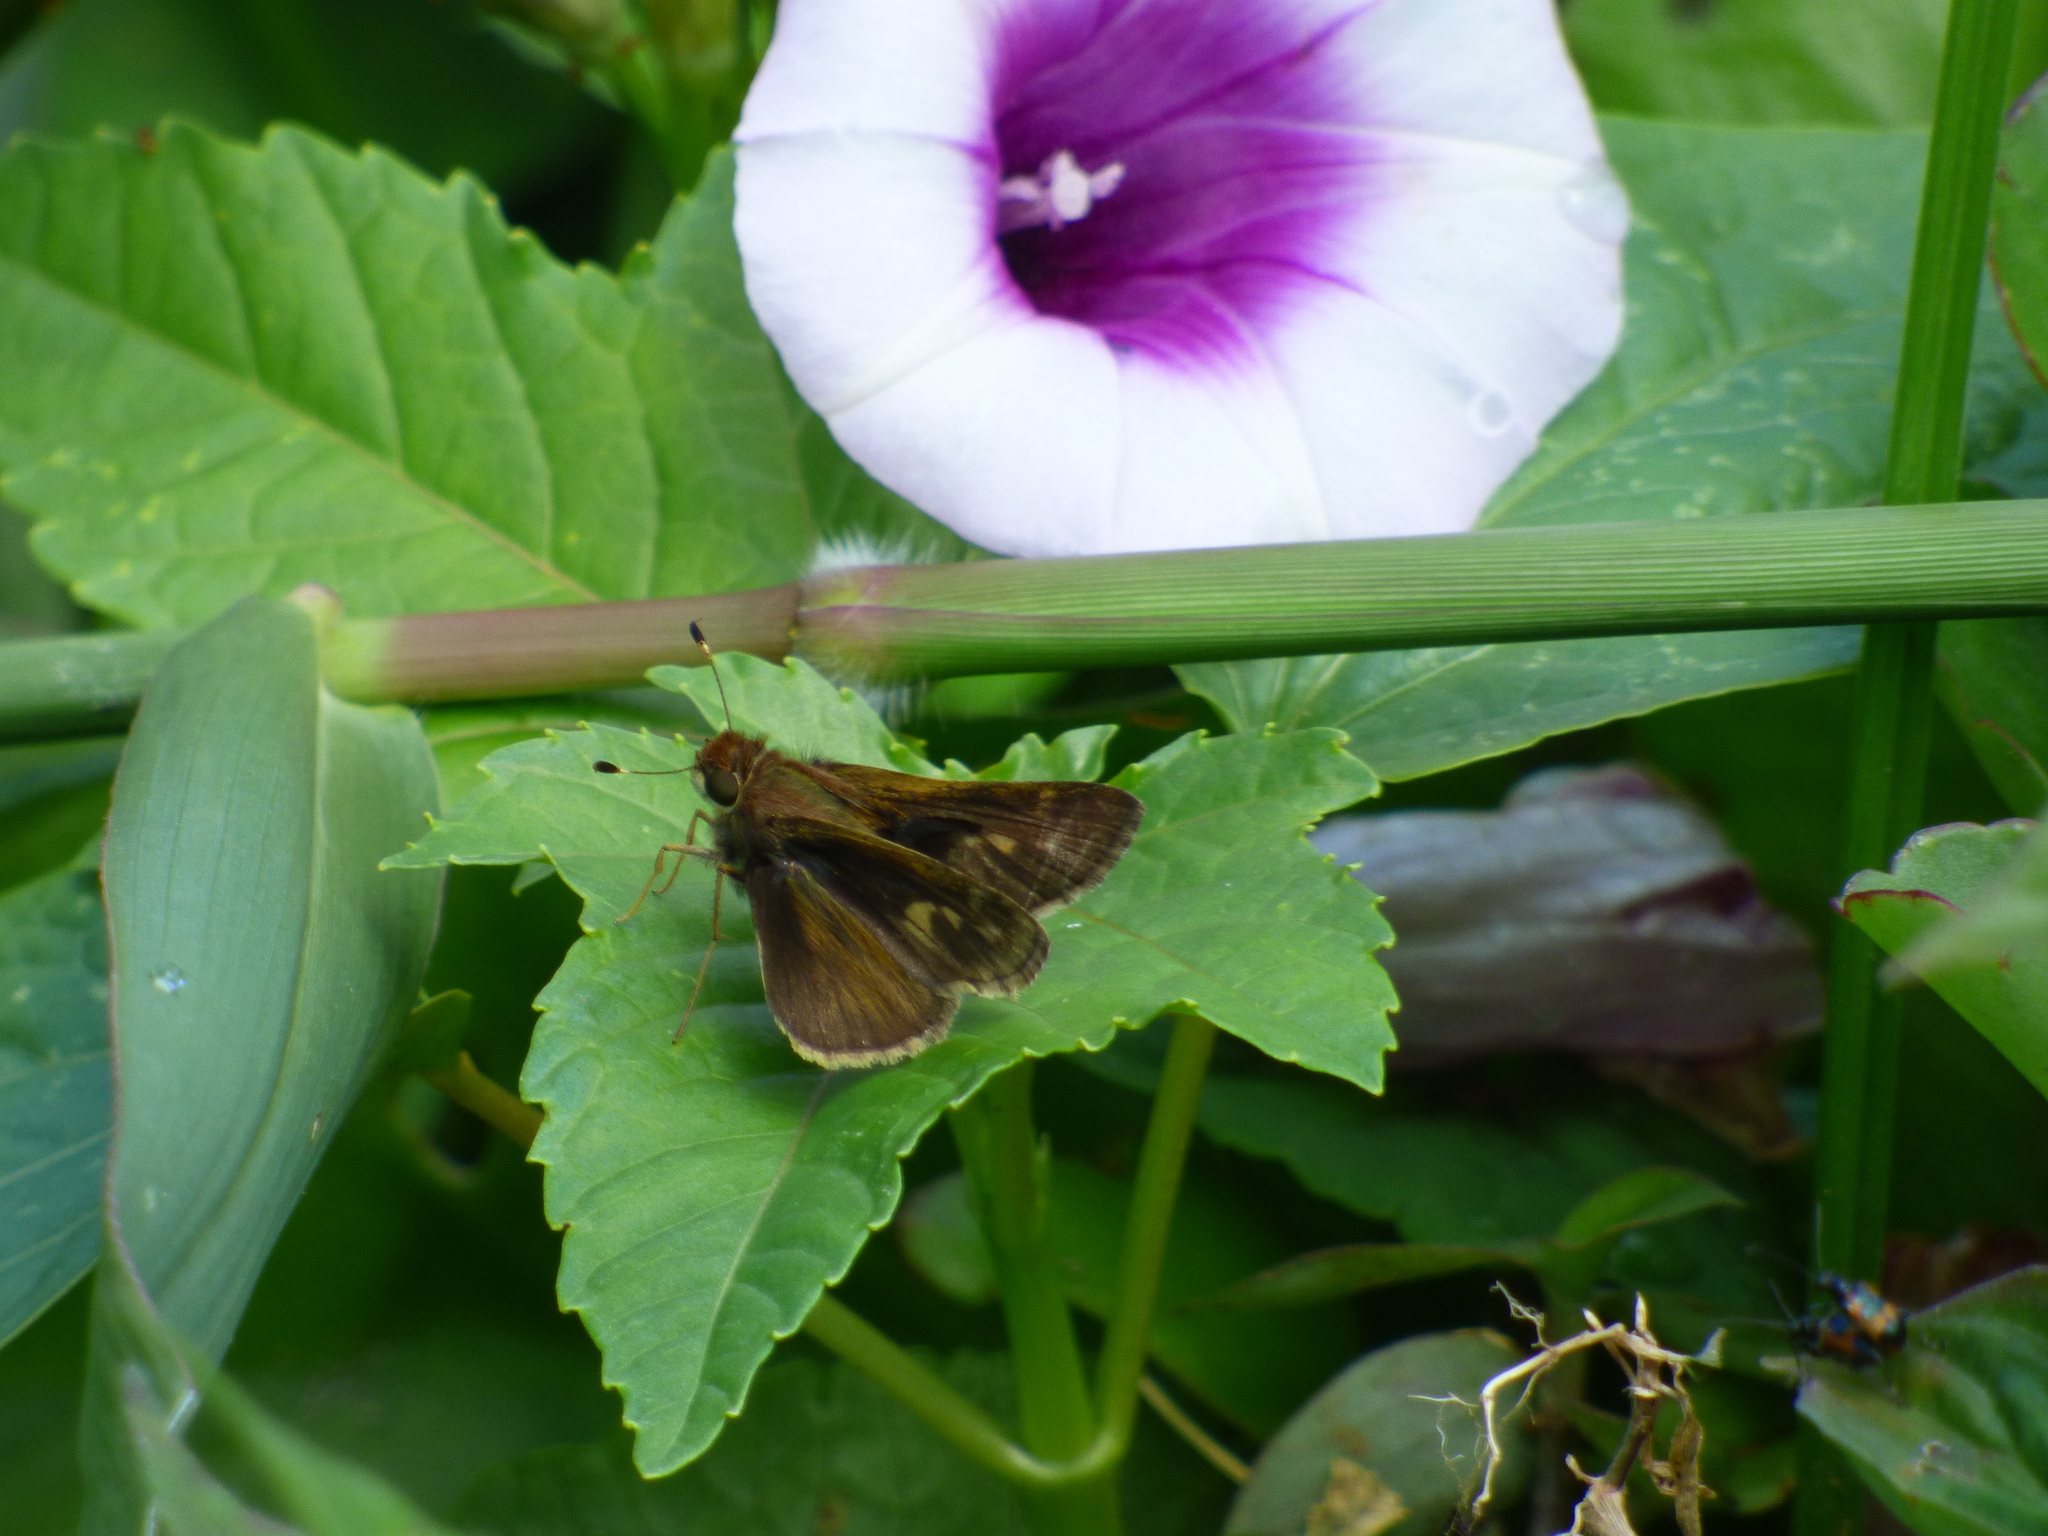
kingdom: Animalia
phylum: Arthropoda
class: Insecta
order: Lepidoptera
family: Hesperiidae
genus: Pompeius
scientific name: Pompeius pompeius
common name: Pompeius skipper
